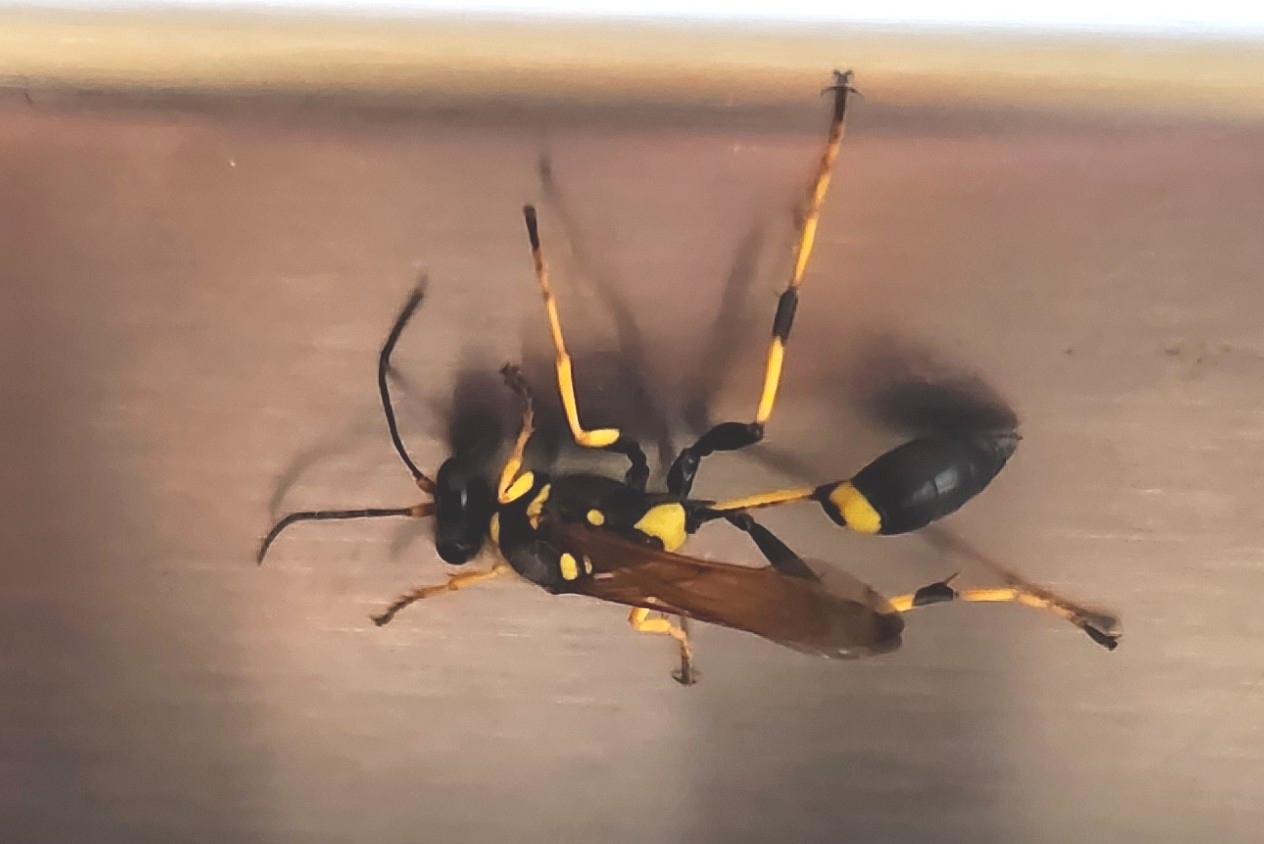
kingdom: Animalia
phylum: Arthropoda
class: Insecta
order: Hymenoptera
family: Sphecidae
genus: Sceliphron
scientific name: Sceliphron caementarium
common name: Mud dauber
